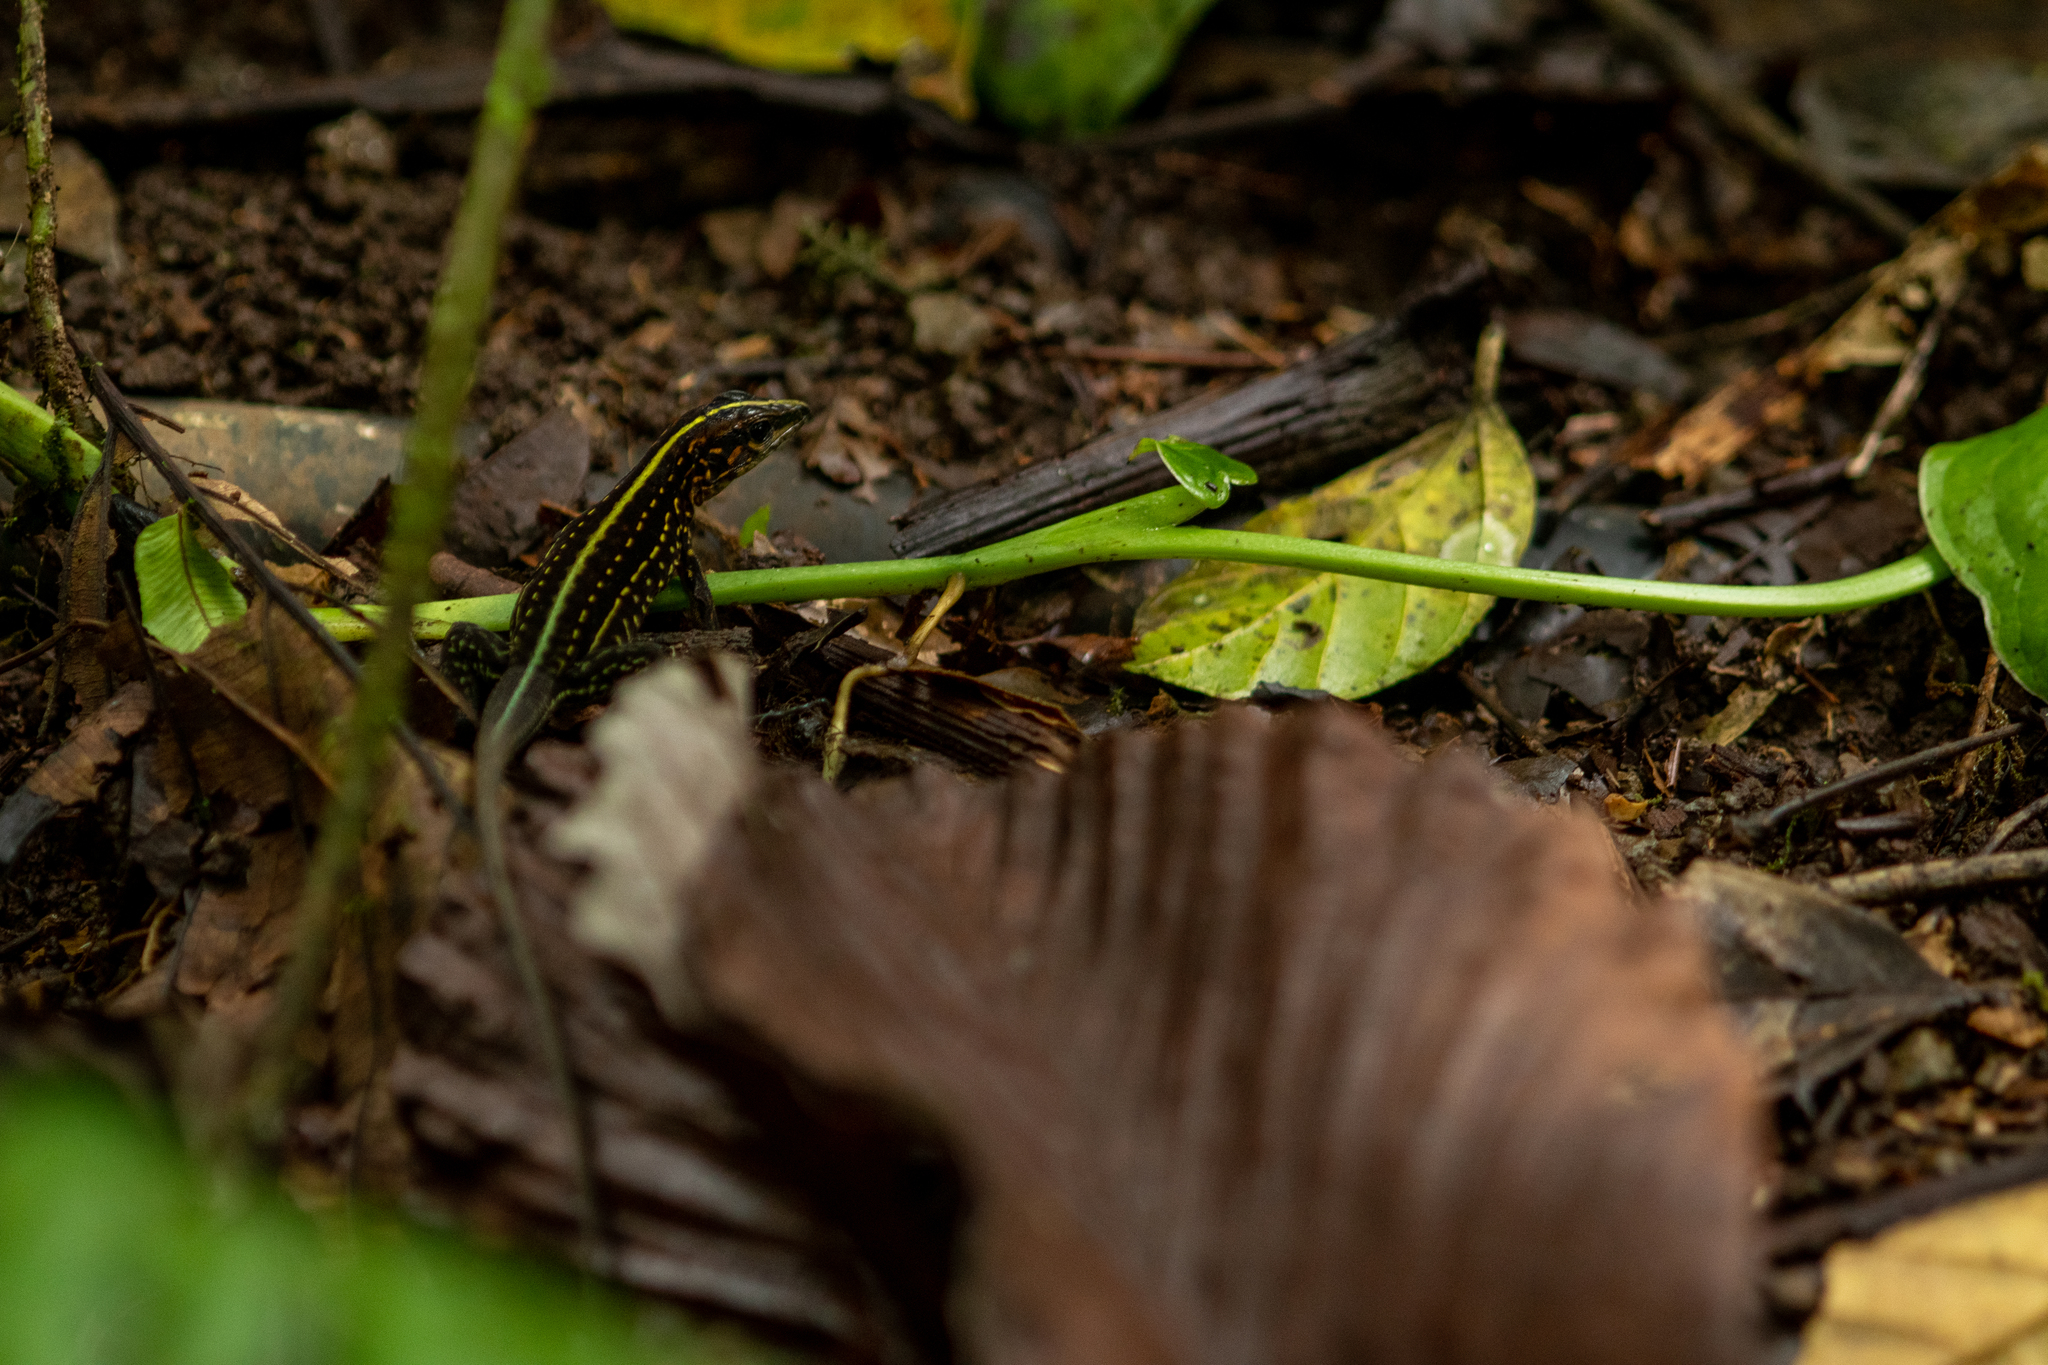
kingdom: Animalia
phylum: Chordata
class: Squamata
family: Teiidae
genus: Holcosus
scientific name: Holcosus festivus
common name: Middle american ameiva
